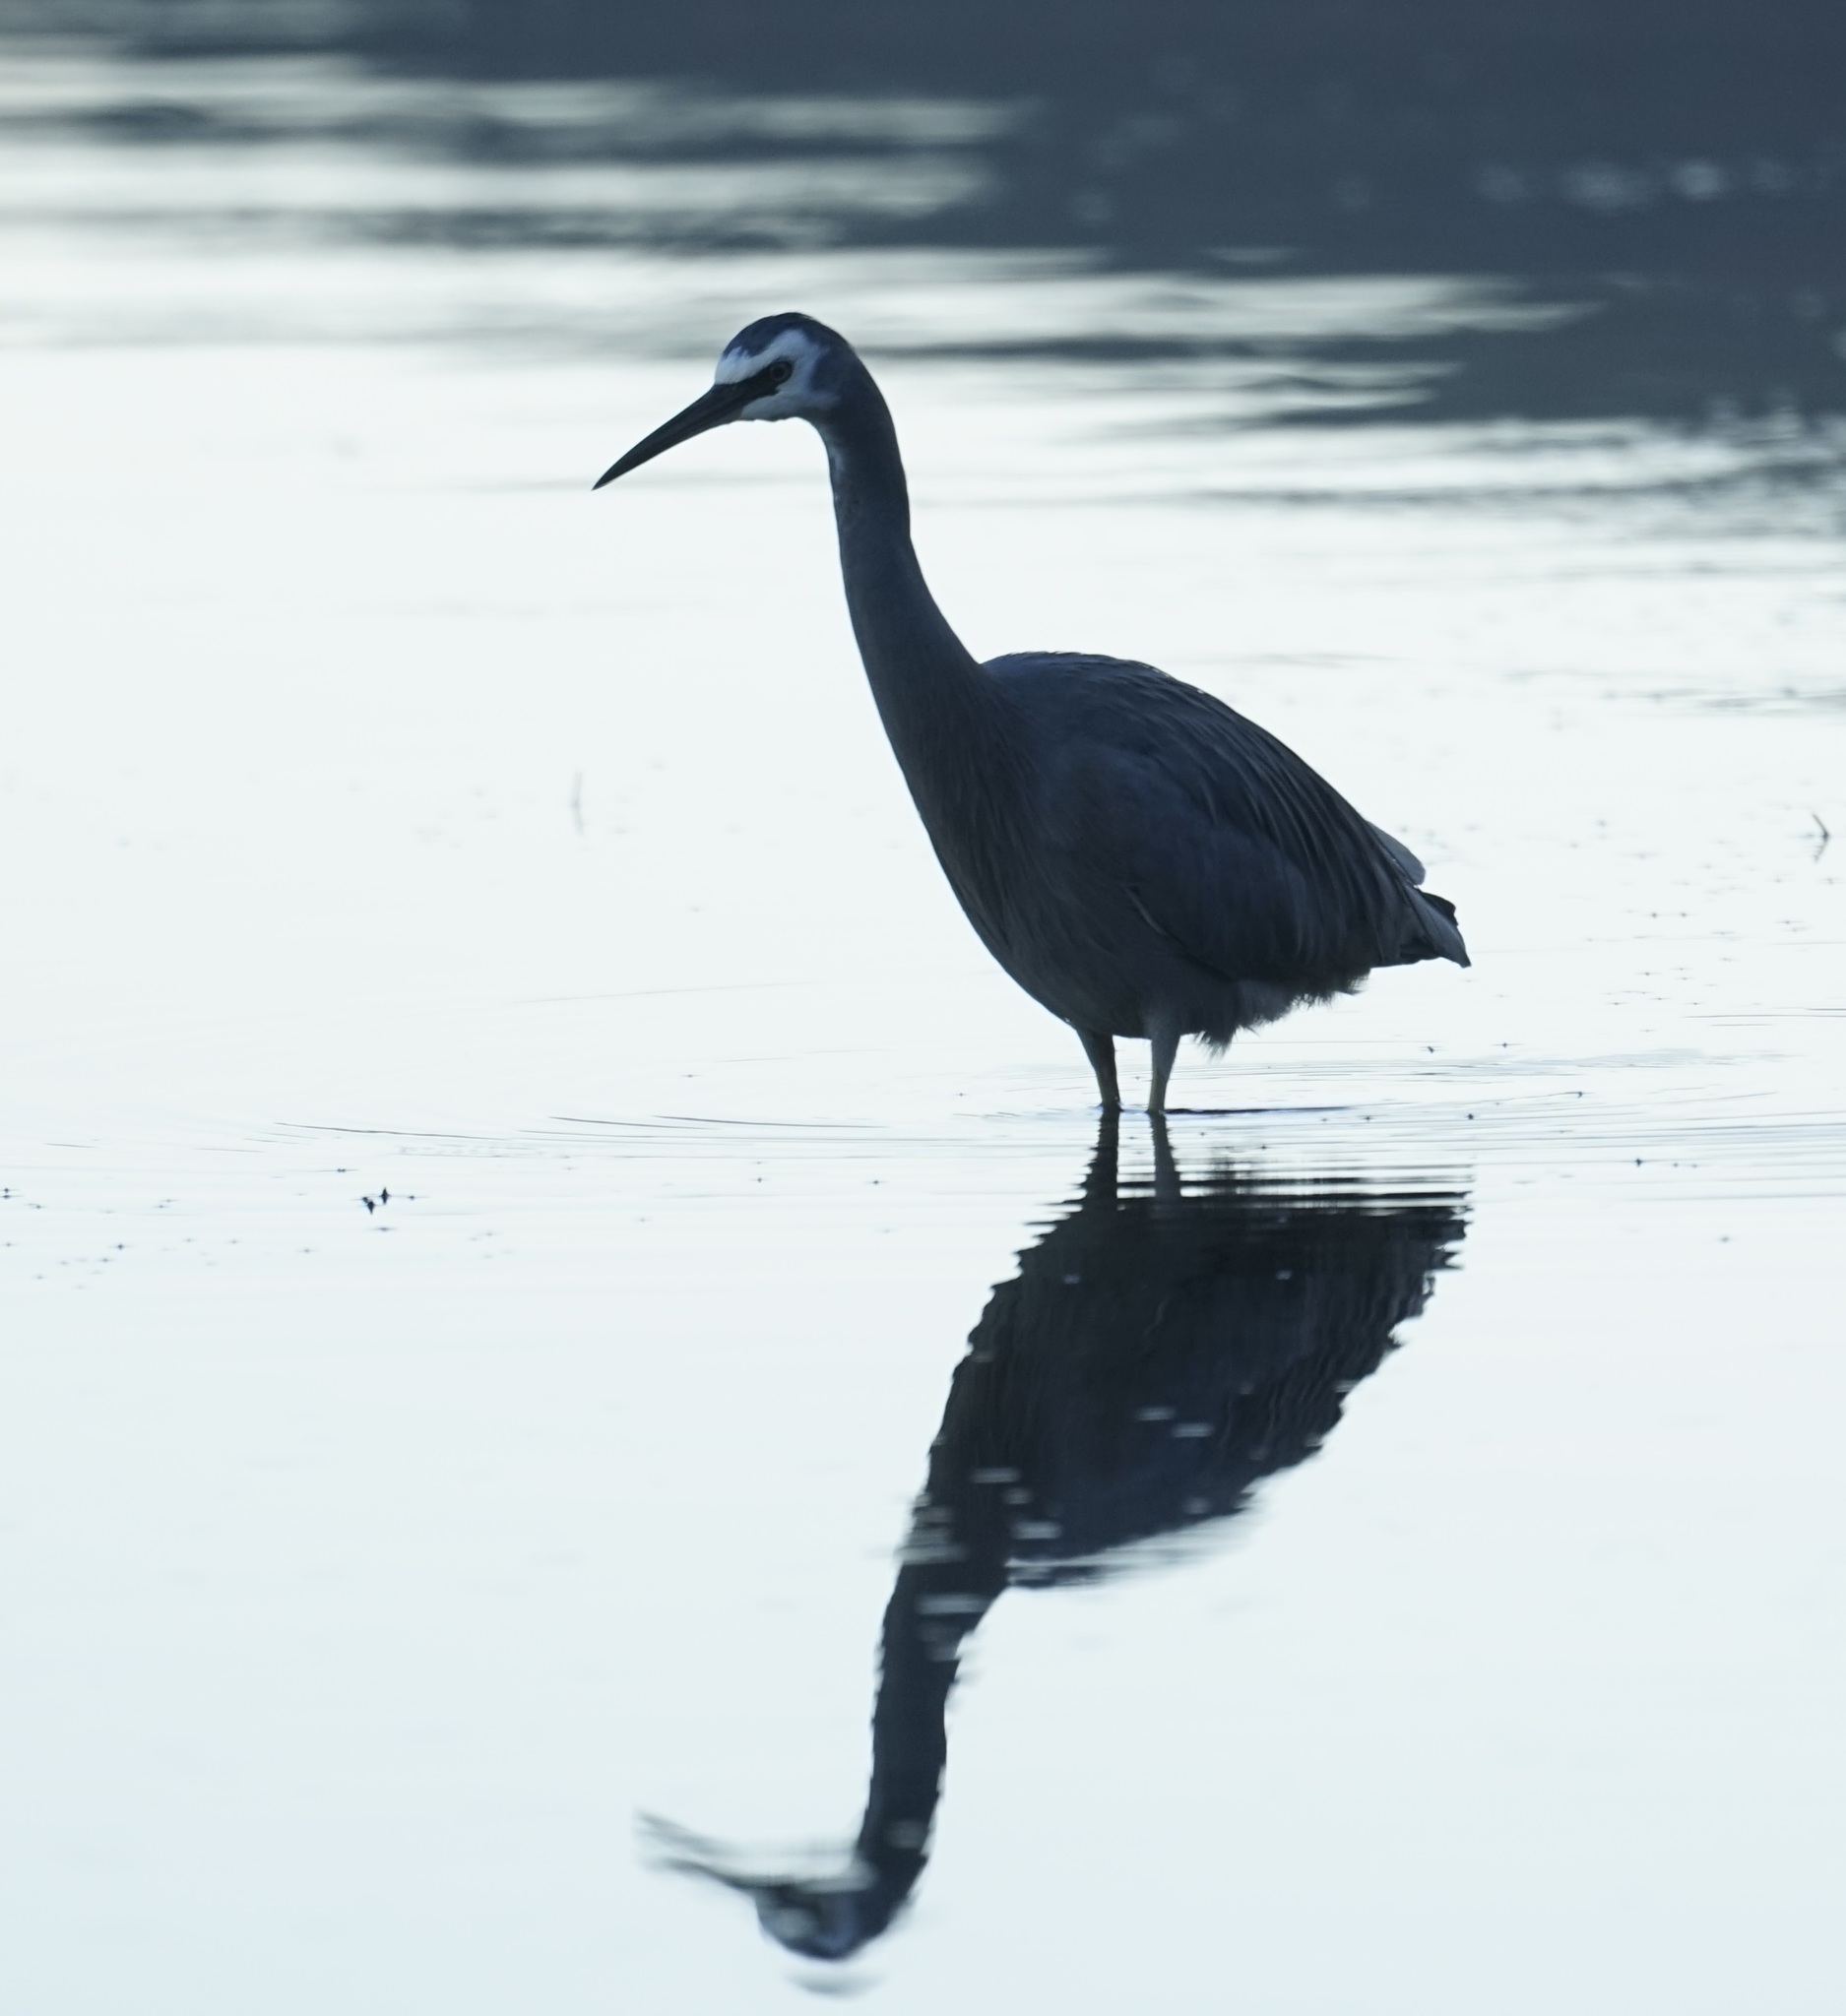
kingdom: Animalia
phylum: Chordata
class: Aves
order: Pelecaniformes
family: Ardeidae
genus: Egretta
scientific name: Egretta novaehollandiae
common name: White-faced heron
